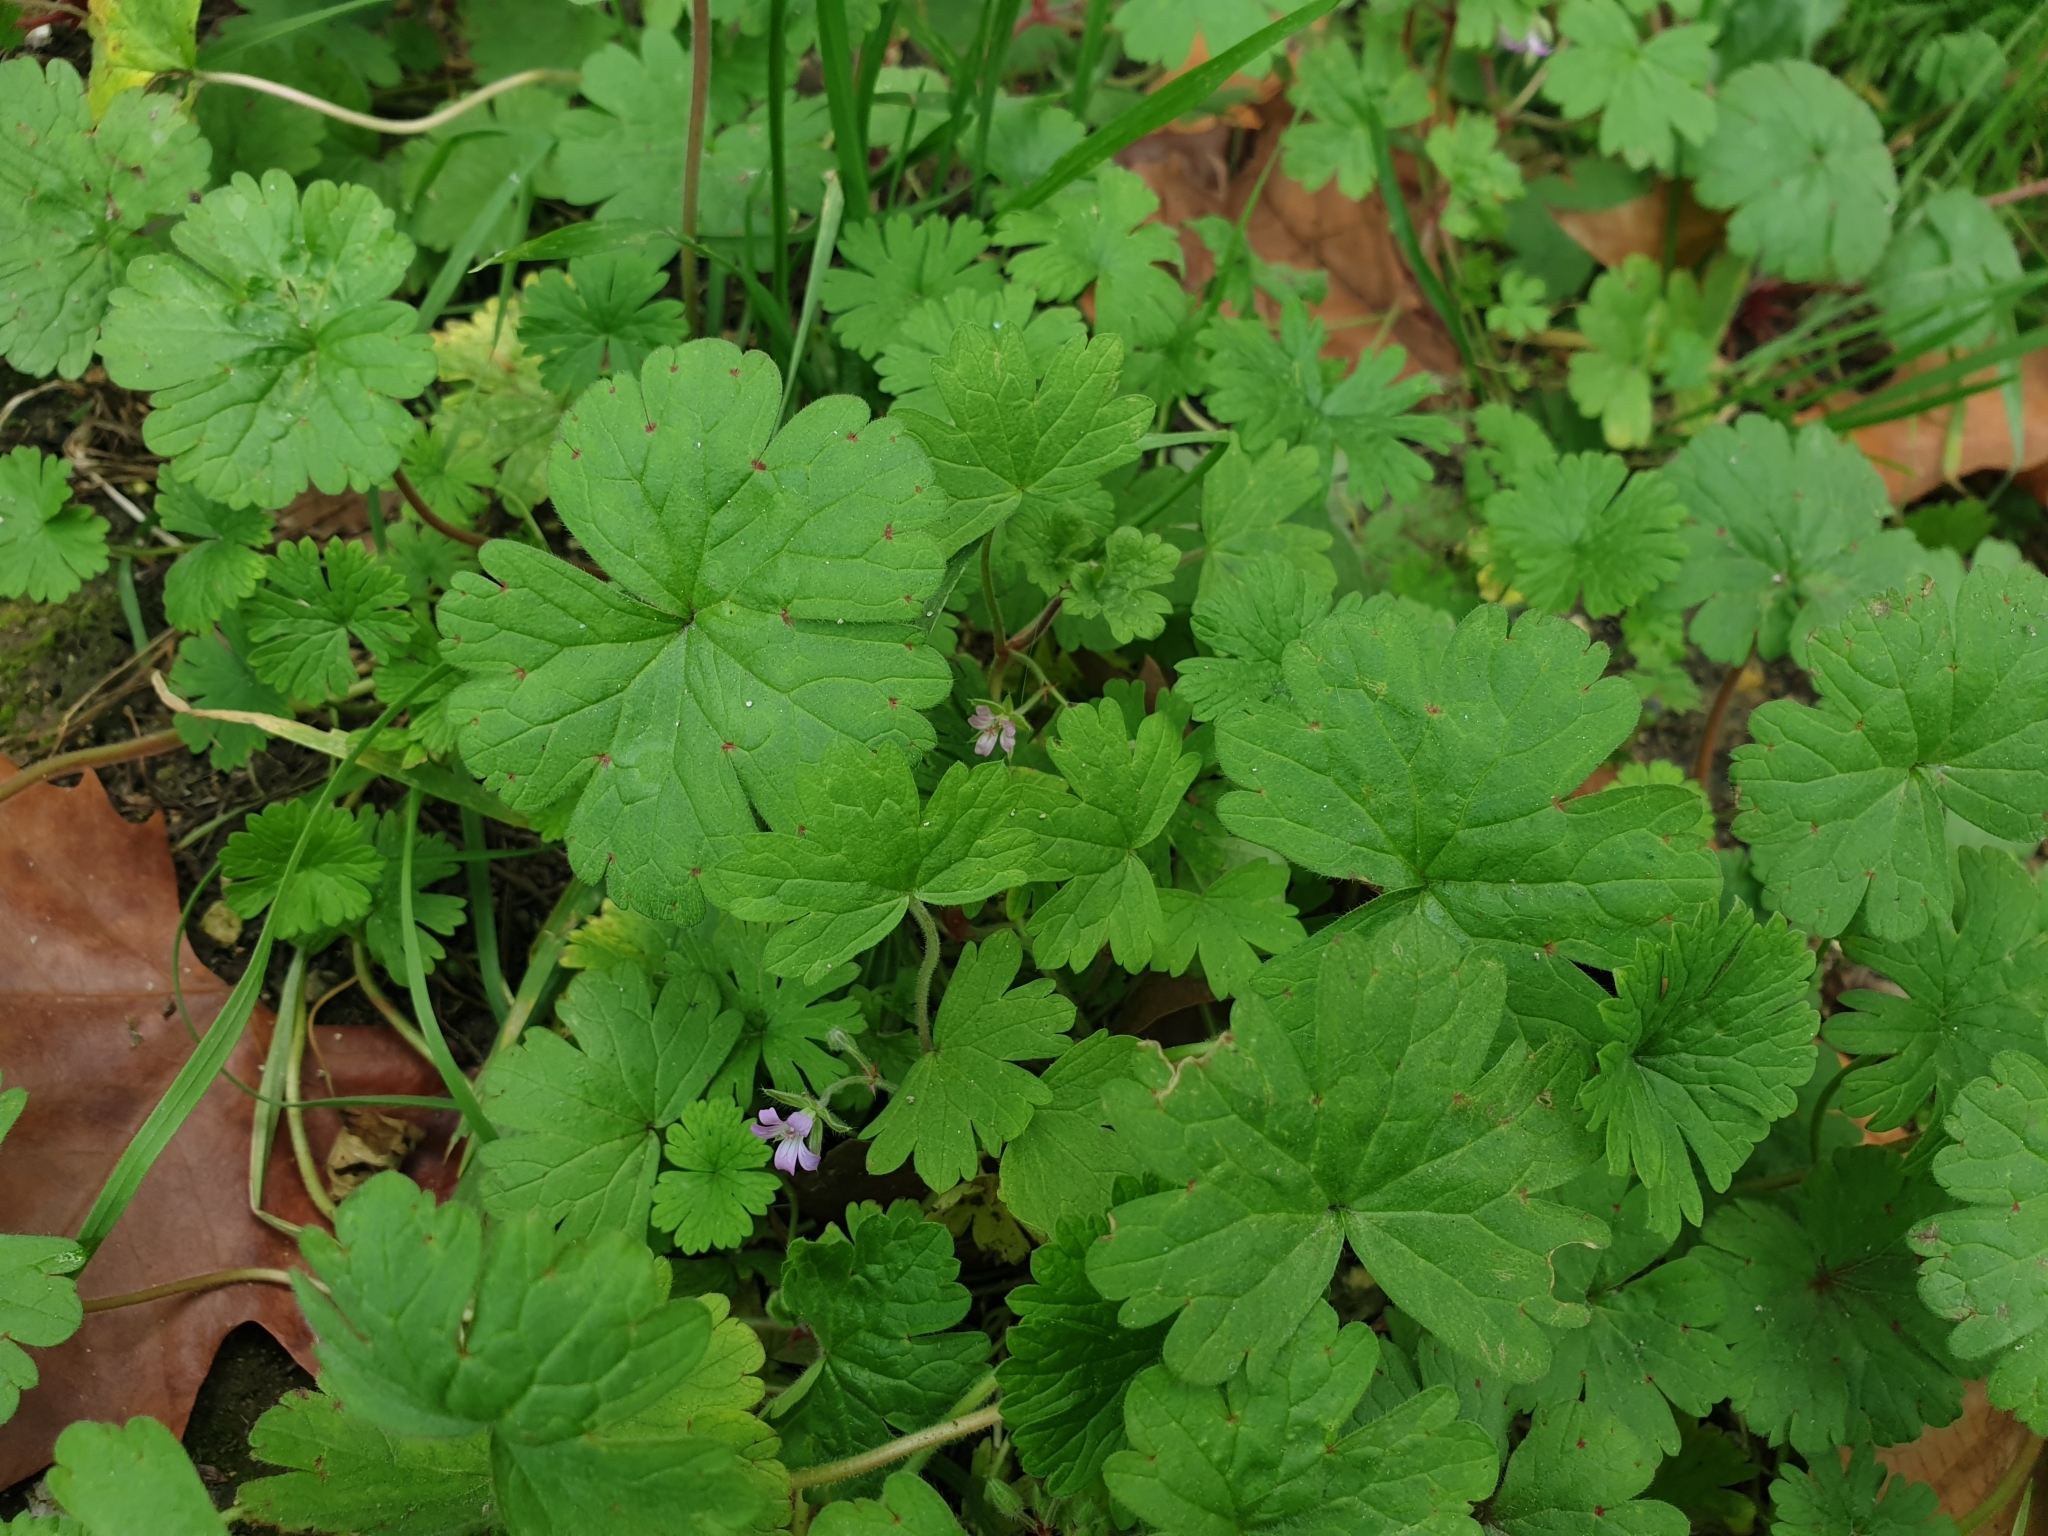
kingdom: Plantae
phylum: Tracheophyta
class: Magnoliopsida
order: Geraniales
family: Geraniaceae
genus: Geranium
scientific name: Geranium rotundifolium
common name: Round-leaved crane's-bill
